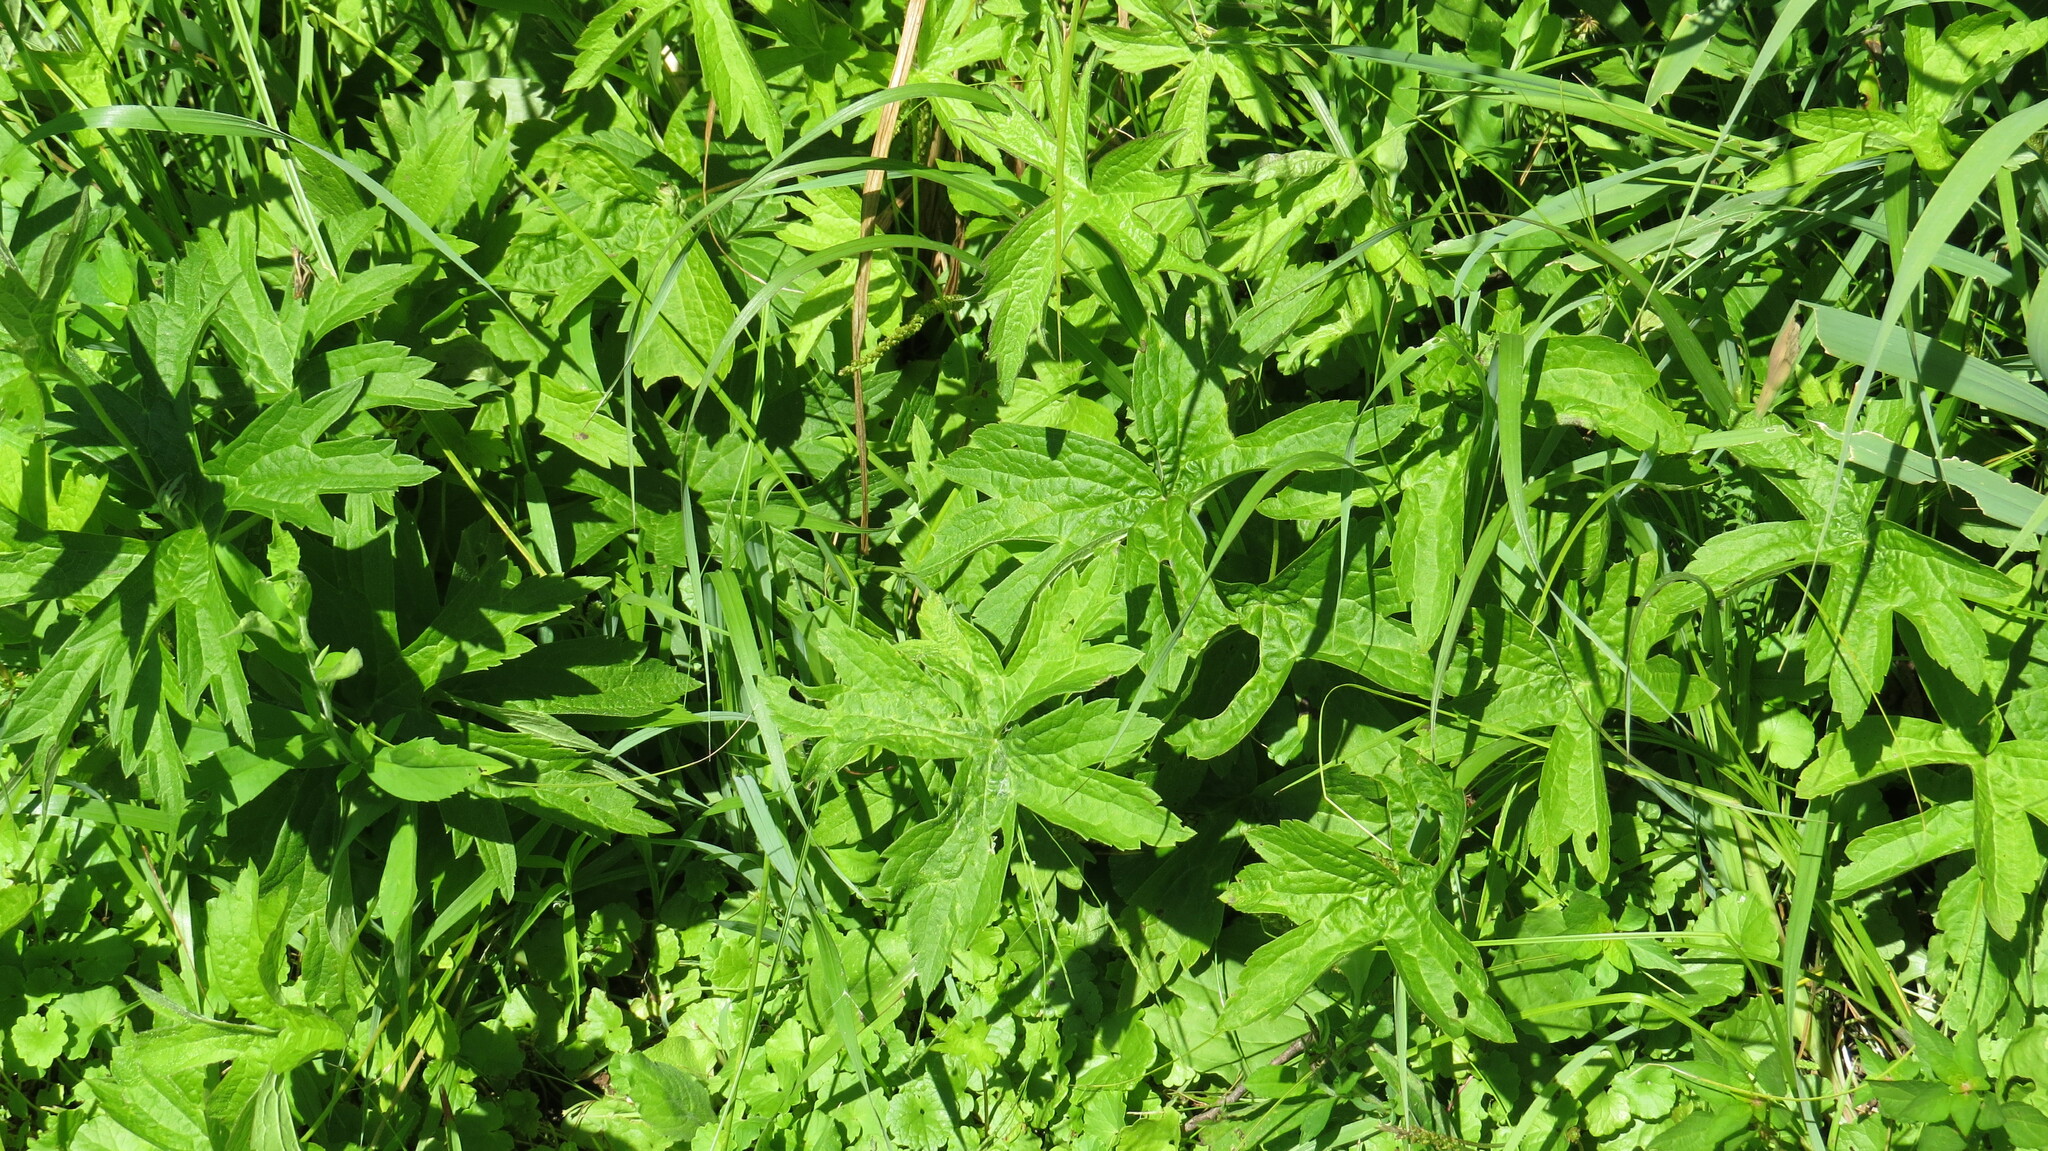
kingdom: Plantae
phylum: Tracheophyta
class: Magnoliopsida
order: Ranunculales
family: Ranunculaceae
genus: Anemonastrum
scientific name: Anemonastrum canadense
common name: Canada anemone
